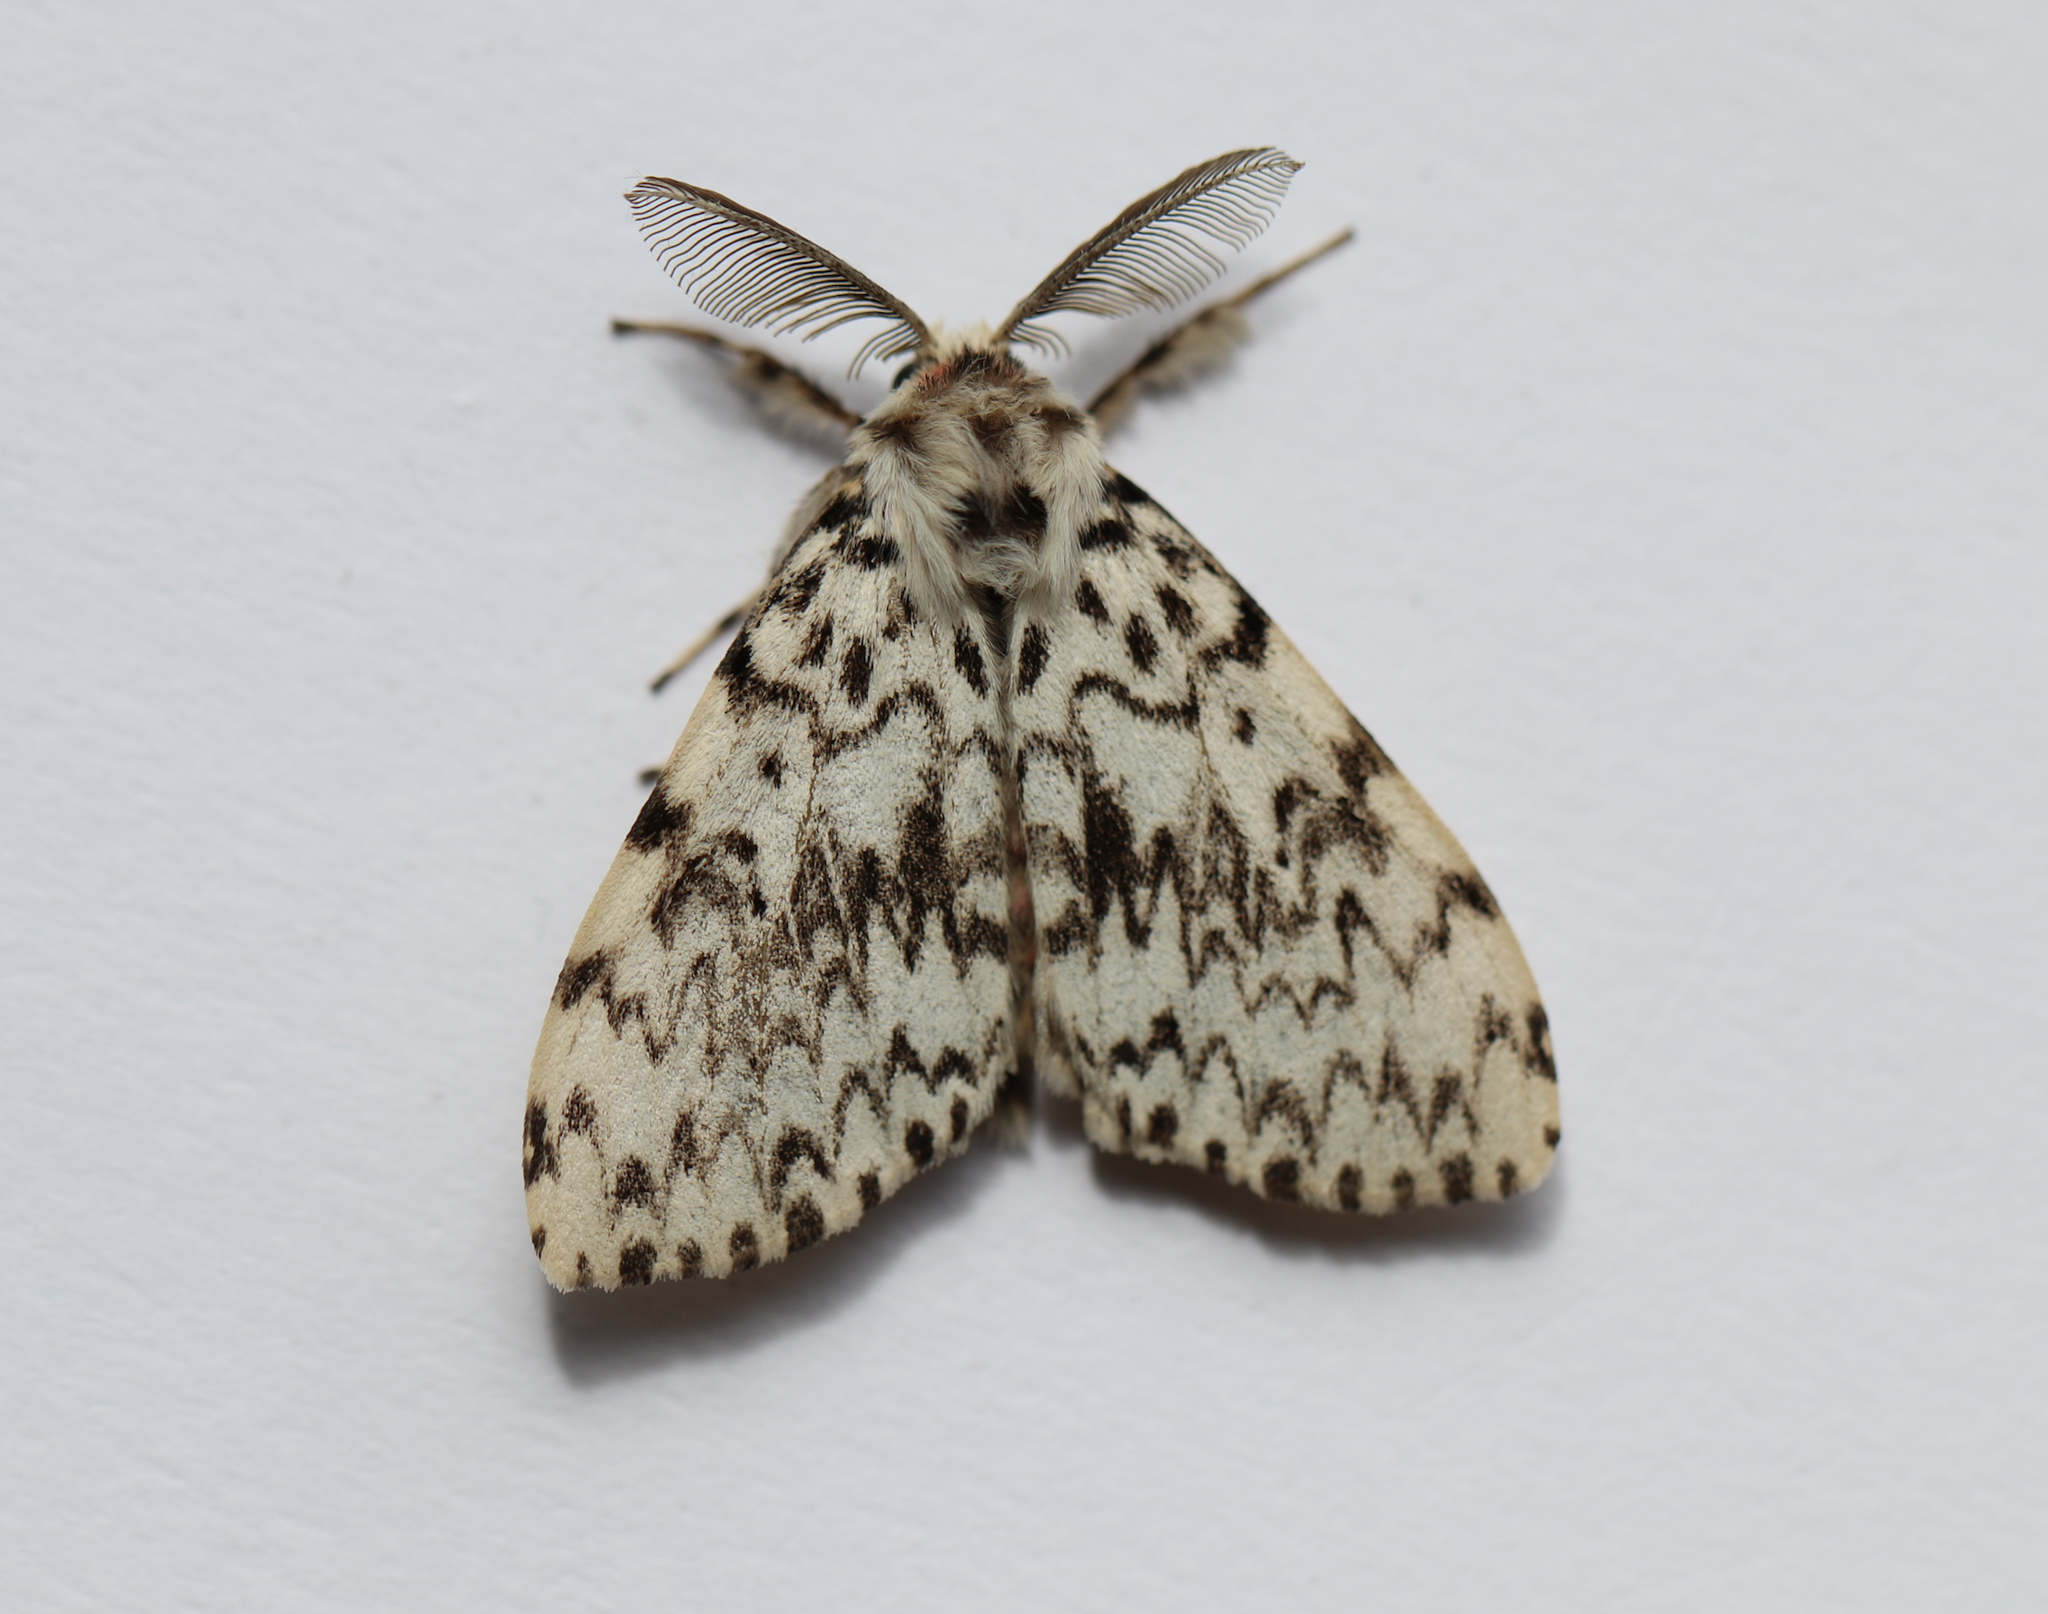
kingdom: Animalia
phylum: Arthropoda
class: Insecta
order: Lepidoptera
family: Erebidae
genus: Lymantria
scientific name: Lymantria monacha
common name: Black arches
